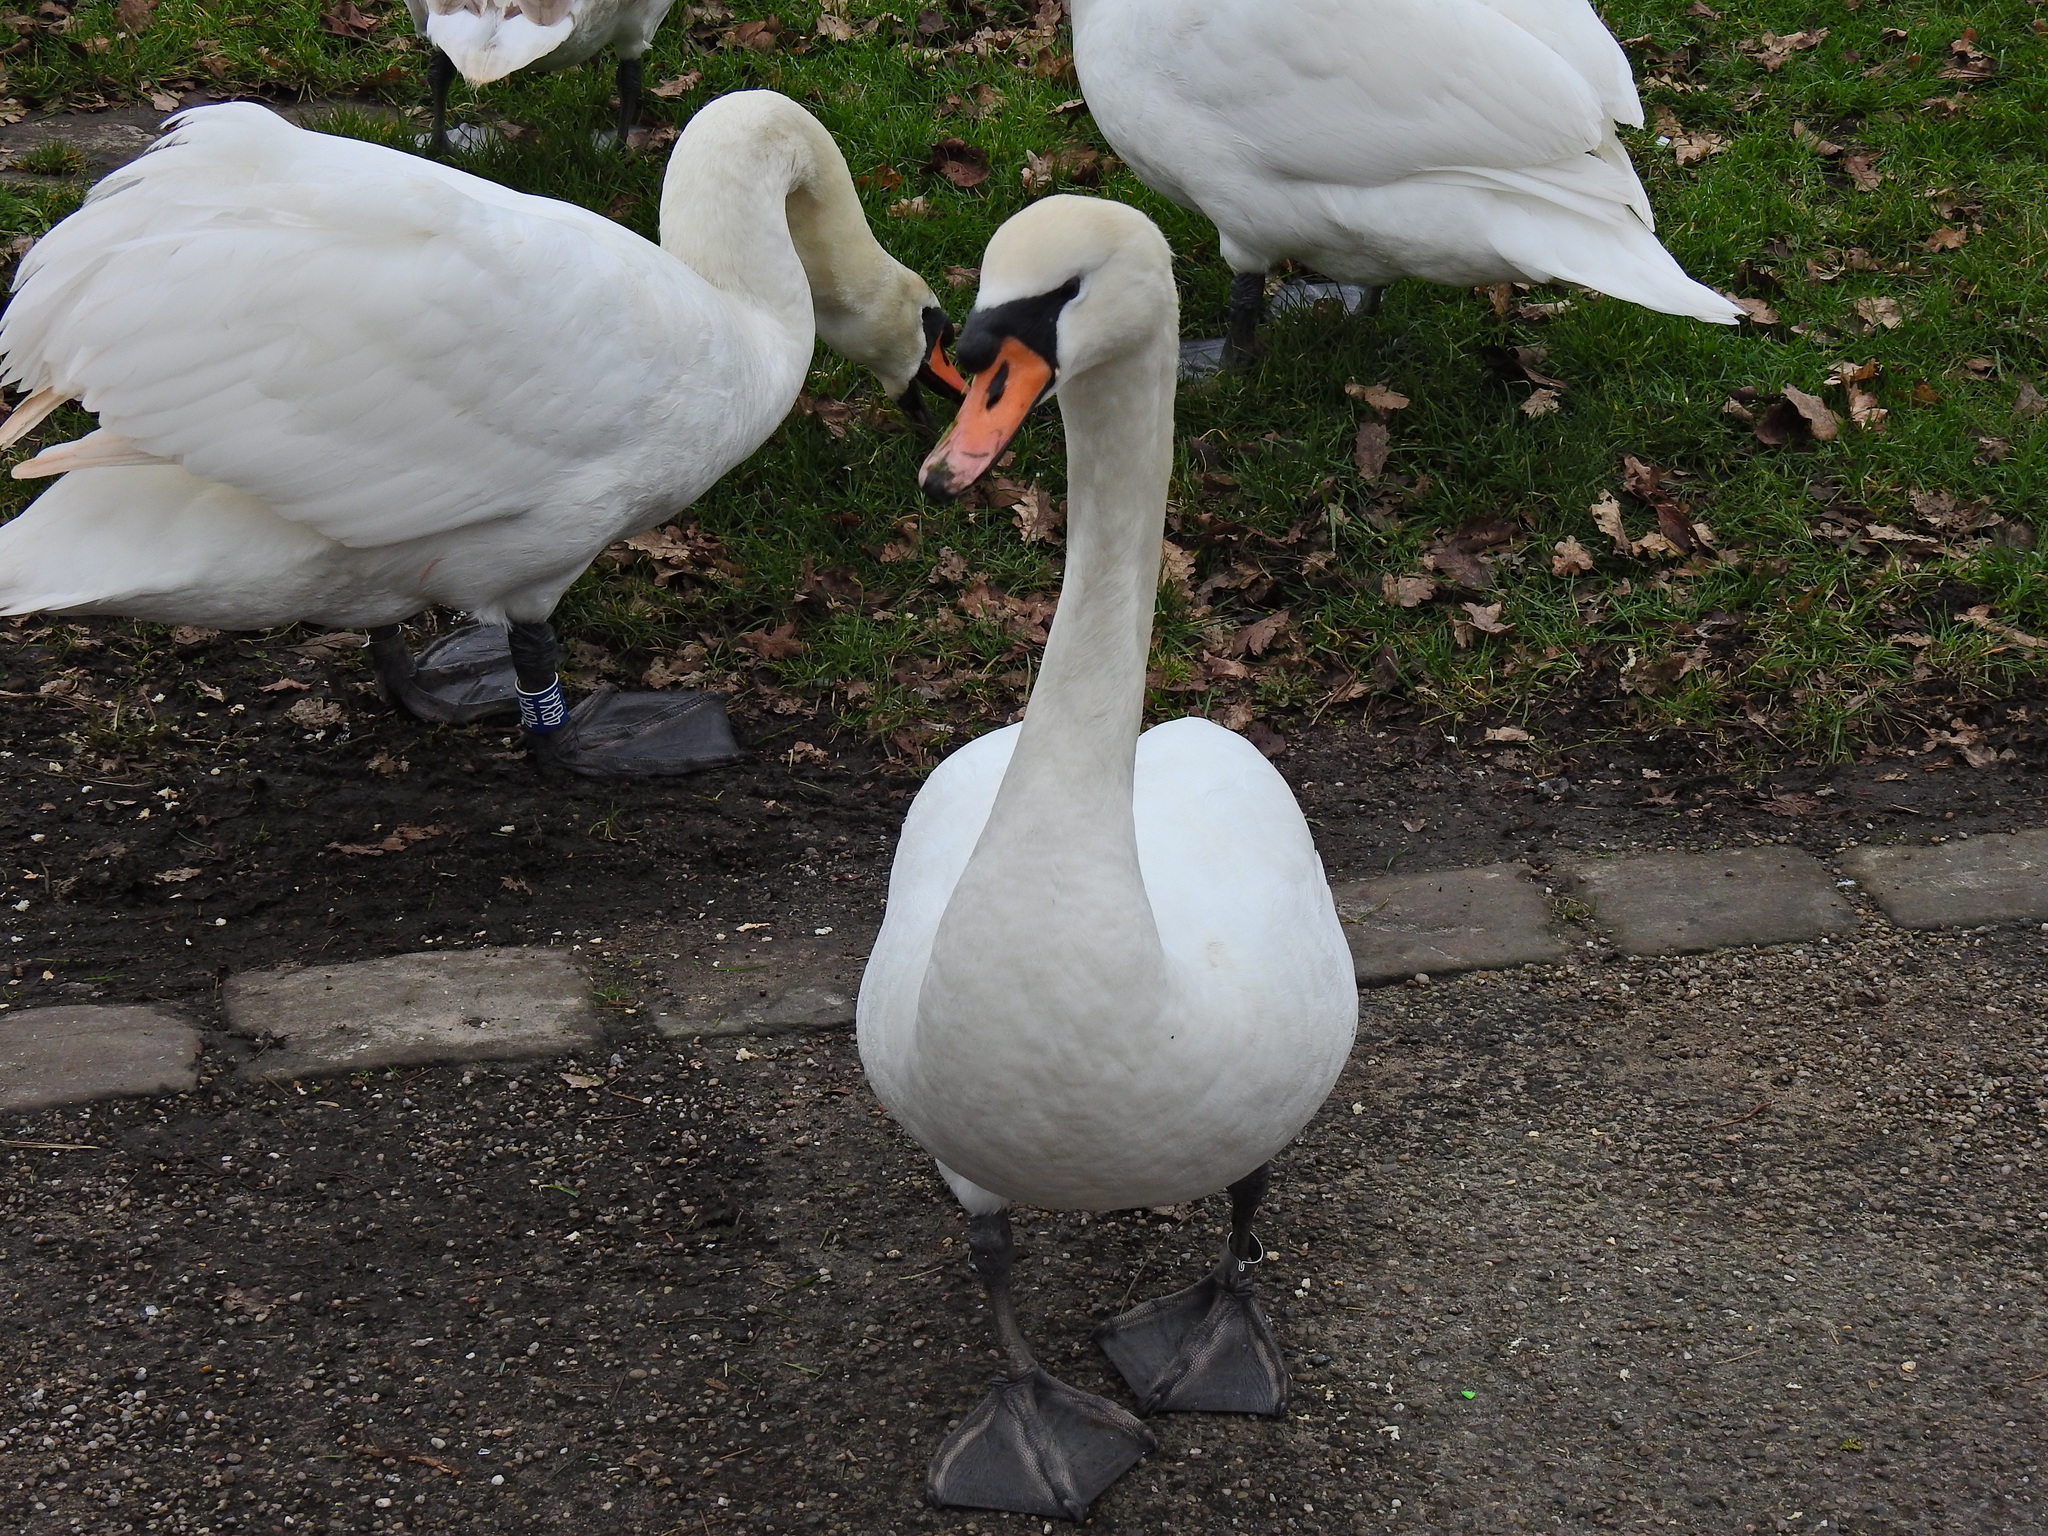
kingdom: Animalia
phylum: Chordata
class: Aves
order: Anseriformes
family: Anatidae
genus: Cygnus
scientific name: Cygnus olor
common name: Mute swan
